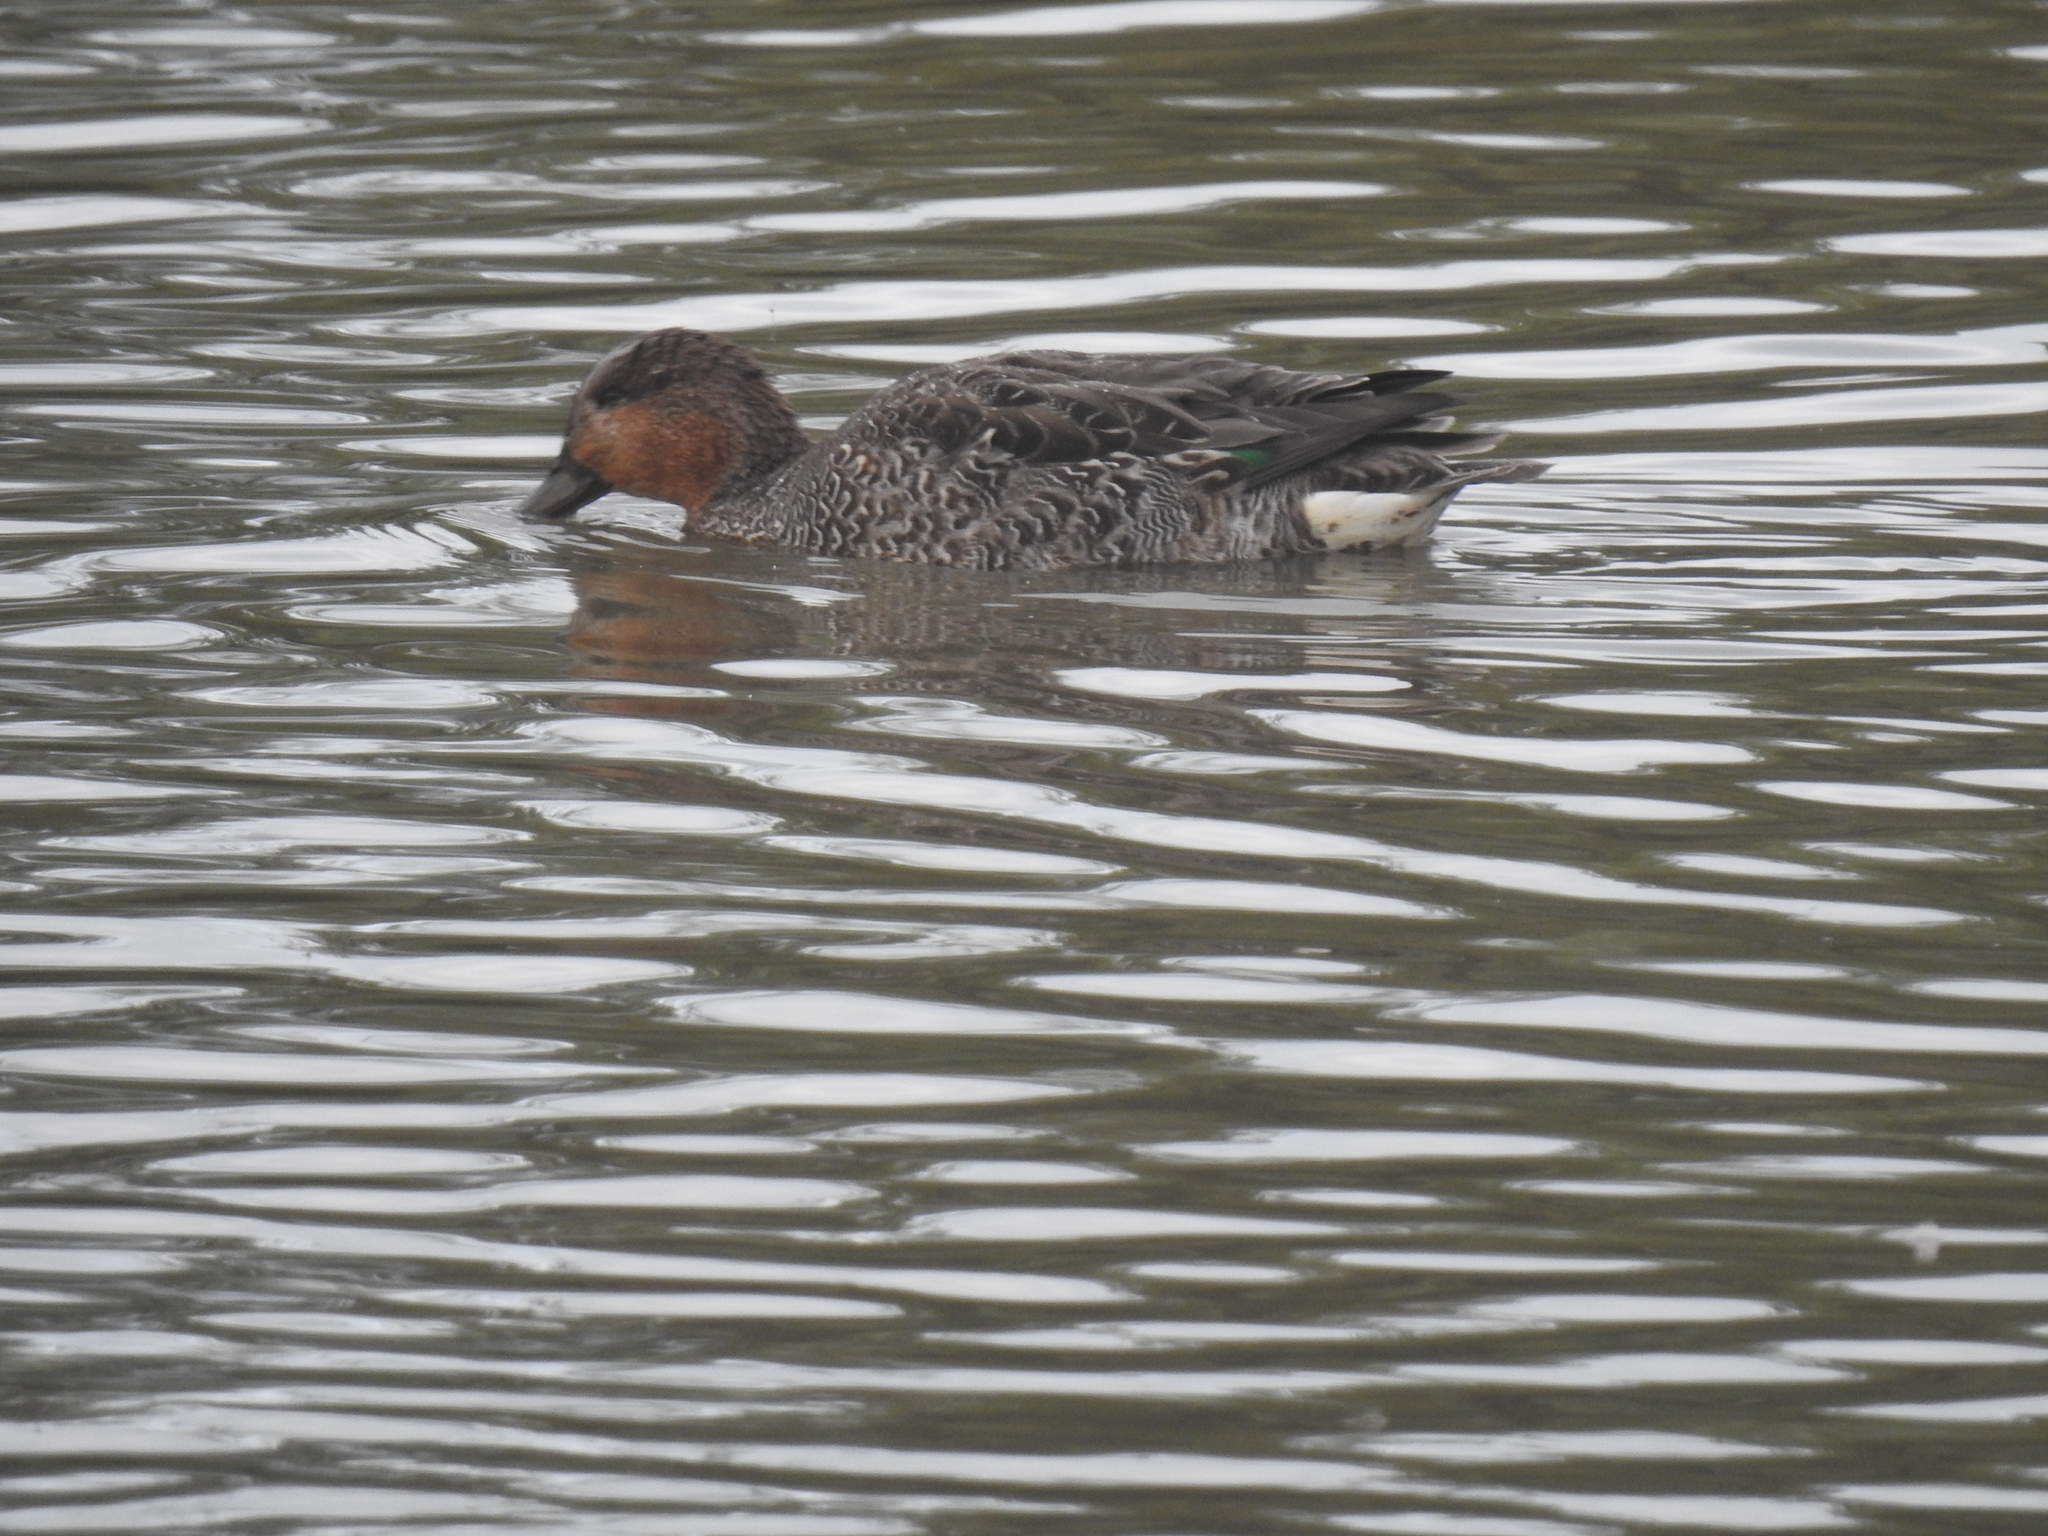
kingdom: Animalia
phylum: Chordata
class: Aves
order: Anseriformes
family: Anatidae
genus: Anas
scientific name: Anas crecca
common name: Eurasian teal
